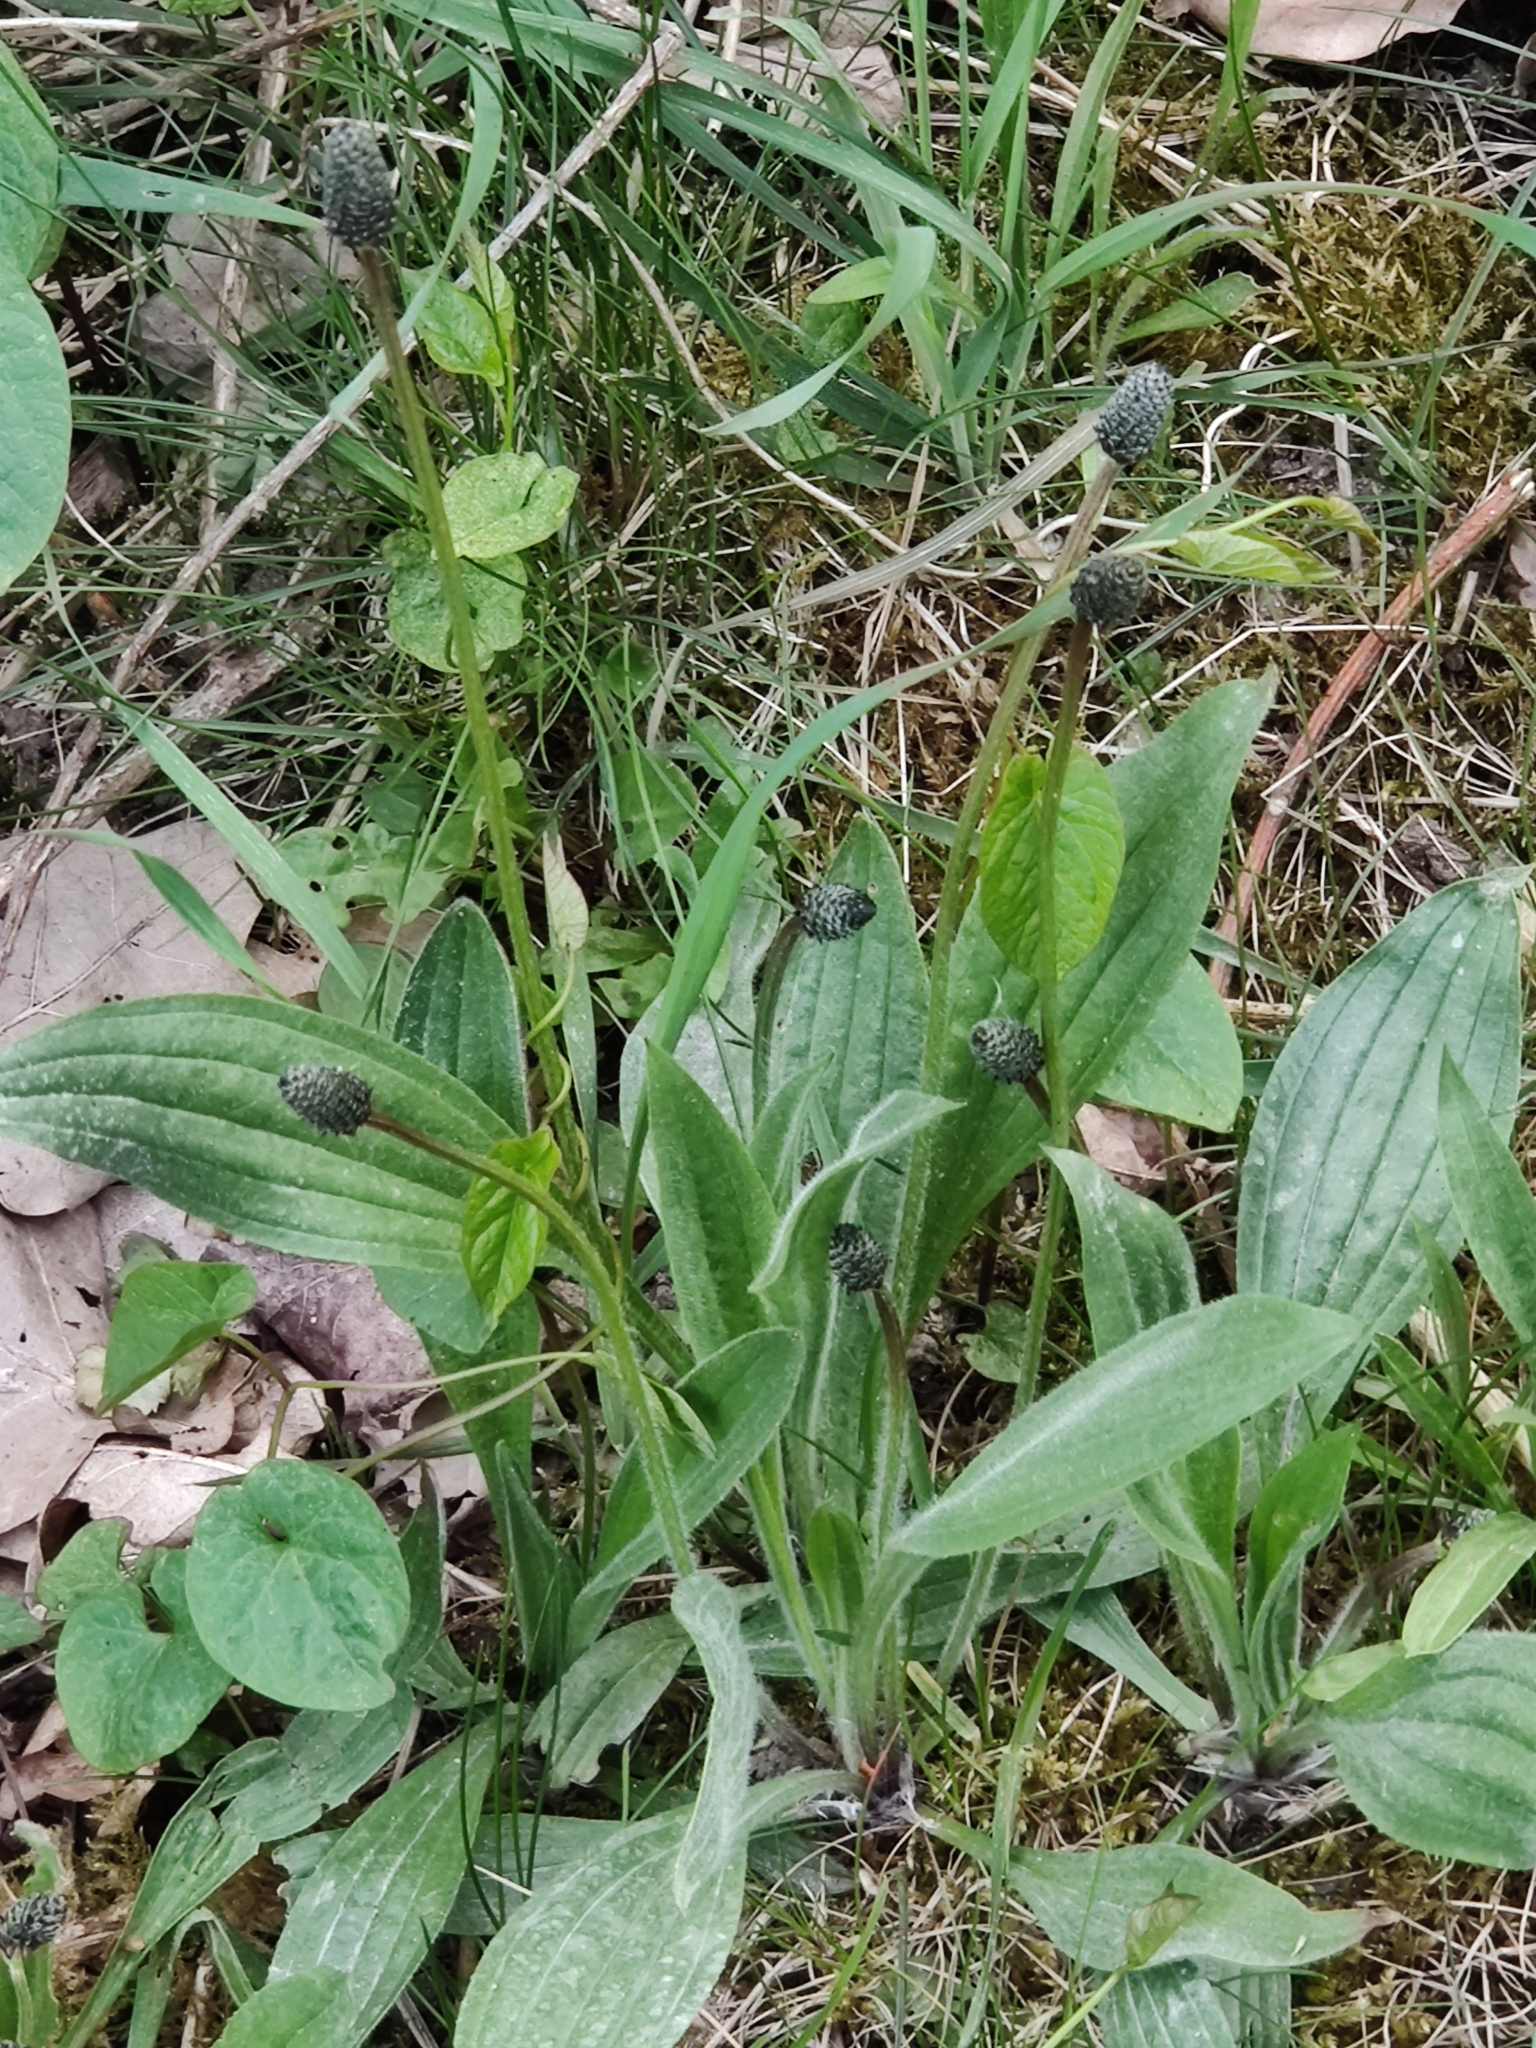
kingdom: Plantae
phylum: Tracheophyta
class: Magnoliopsida
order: Lamiales
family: Plantaginaceae
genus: Plantago
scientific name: Plantago lanceolata
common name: Ribwort plantain
